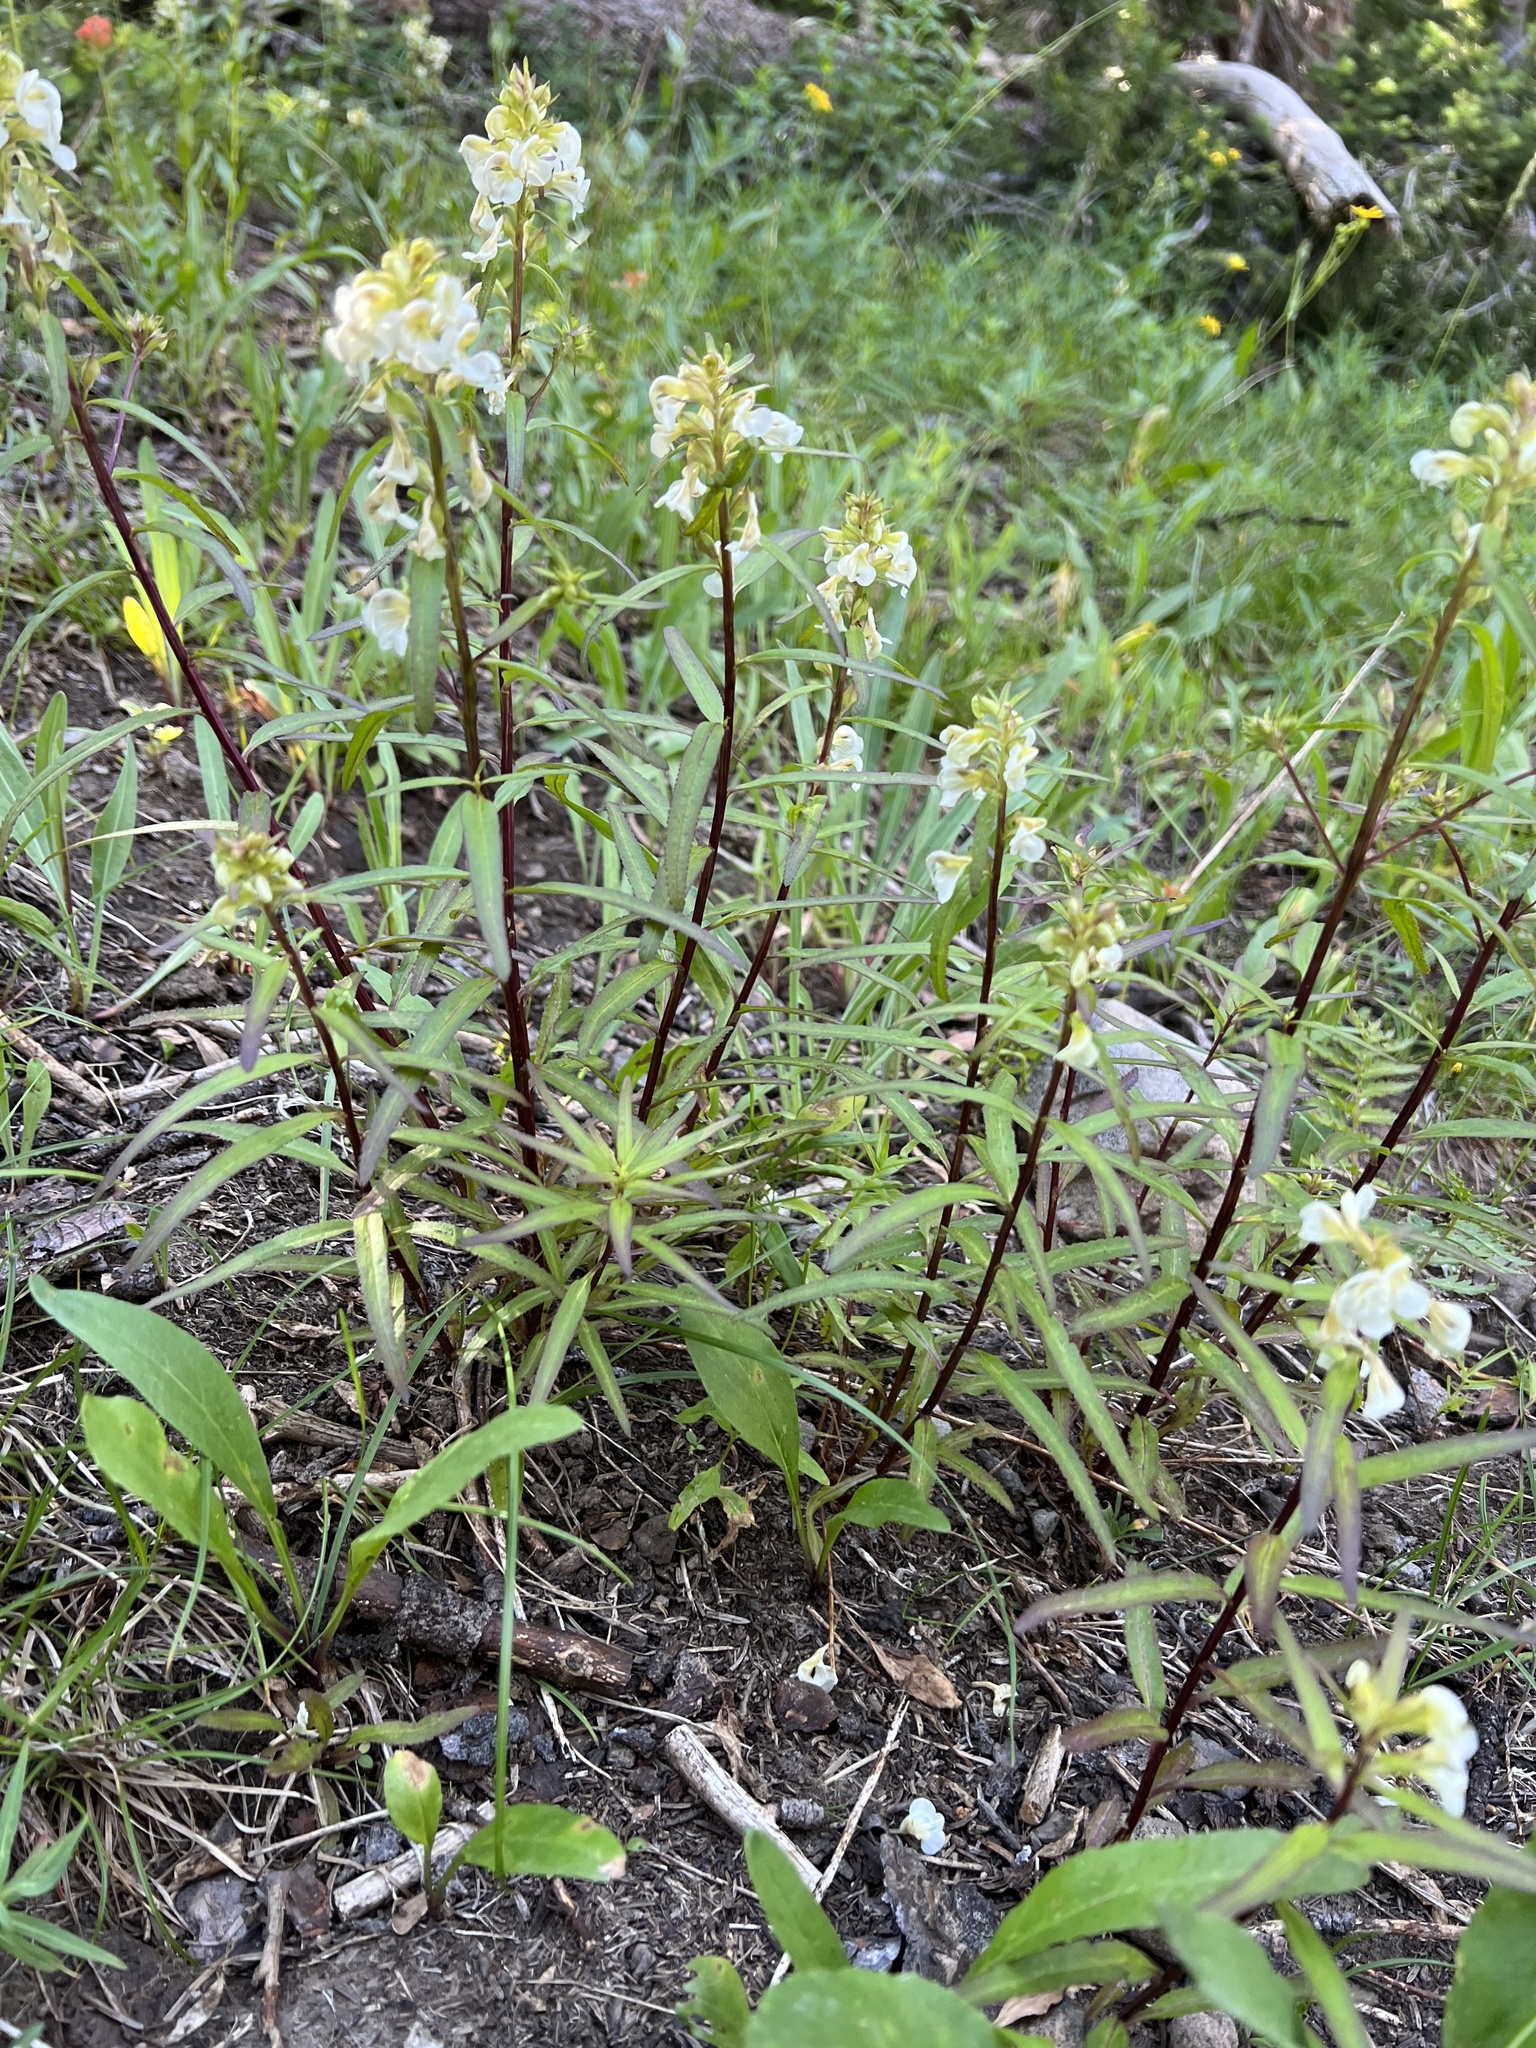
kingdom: Plantae
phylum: Tracheophyta
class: Magnoliopsida
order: Lamiales
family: Orobanchaceae
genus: Pedicularis
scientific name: Pedicularis racemosa
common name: Leafy lousewort
